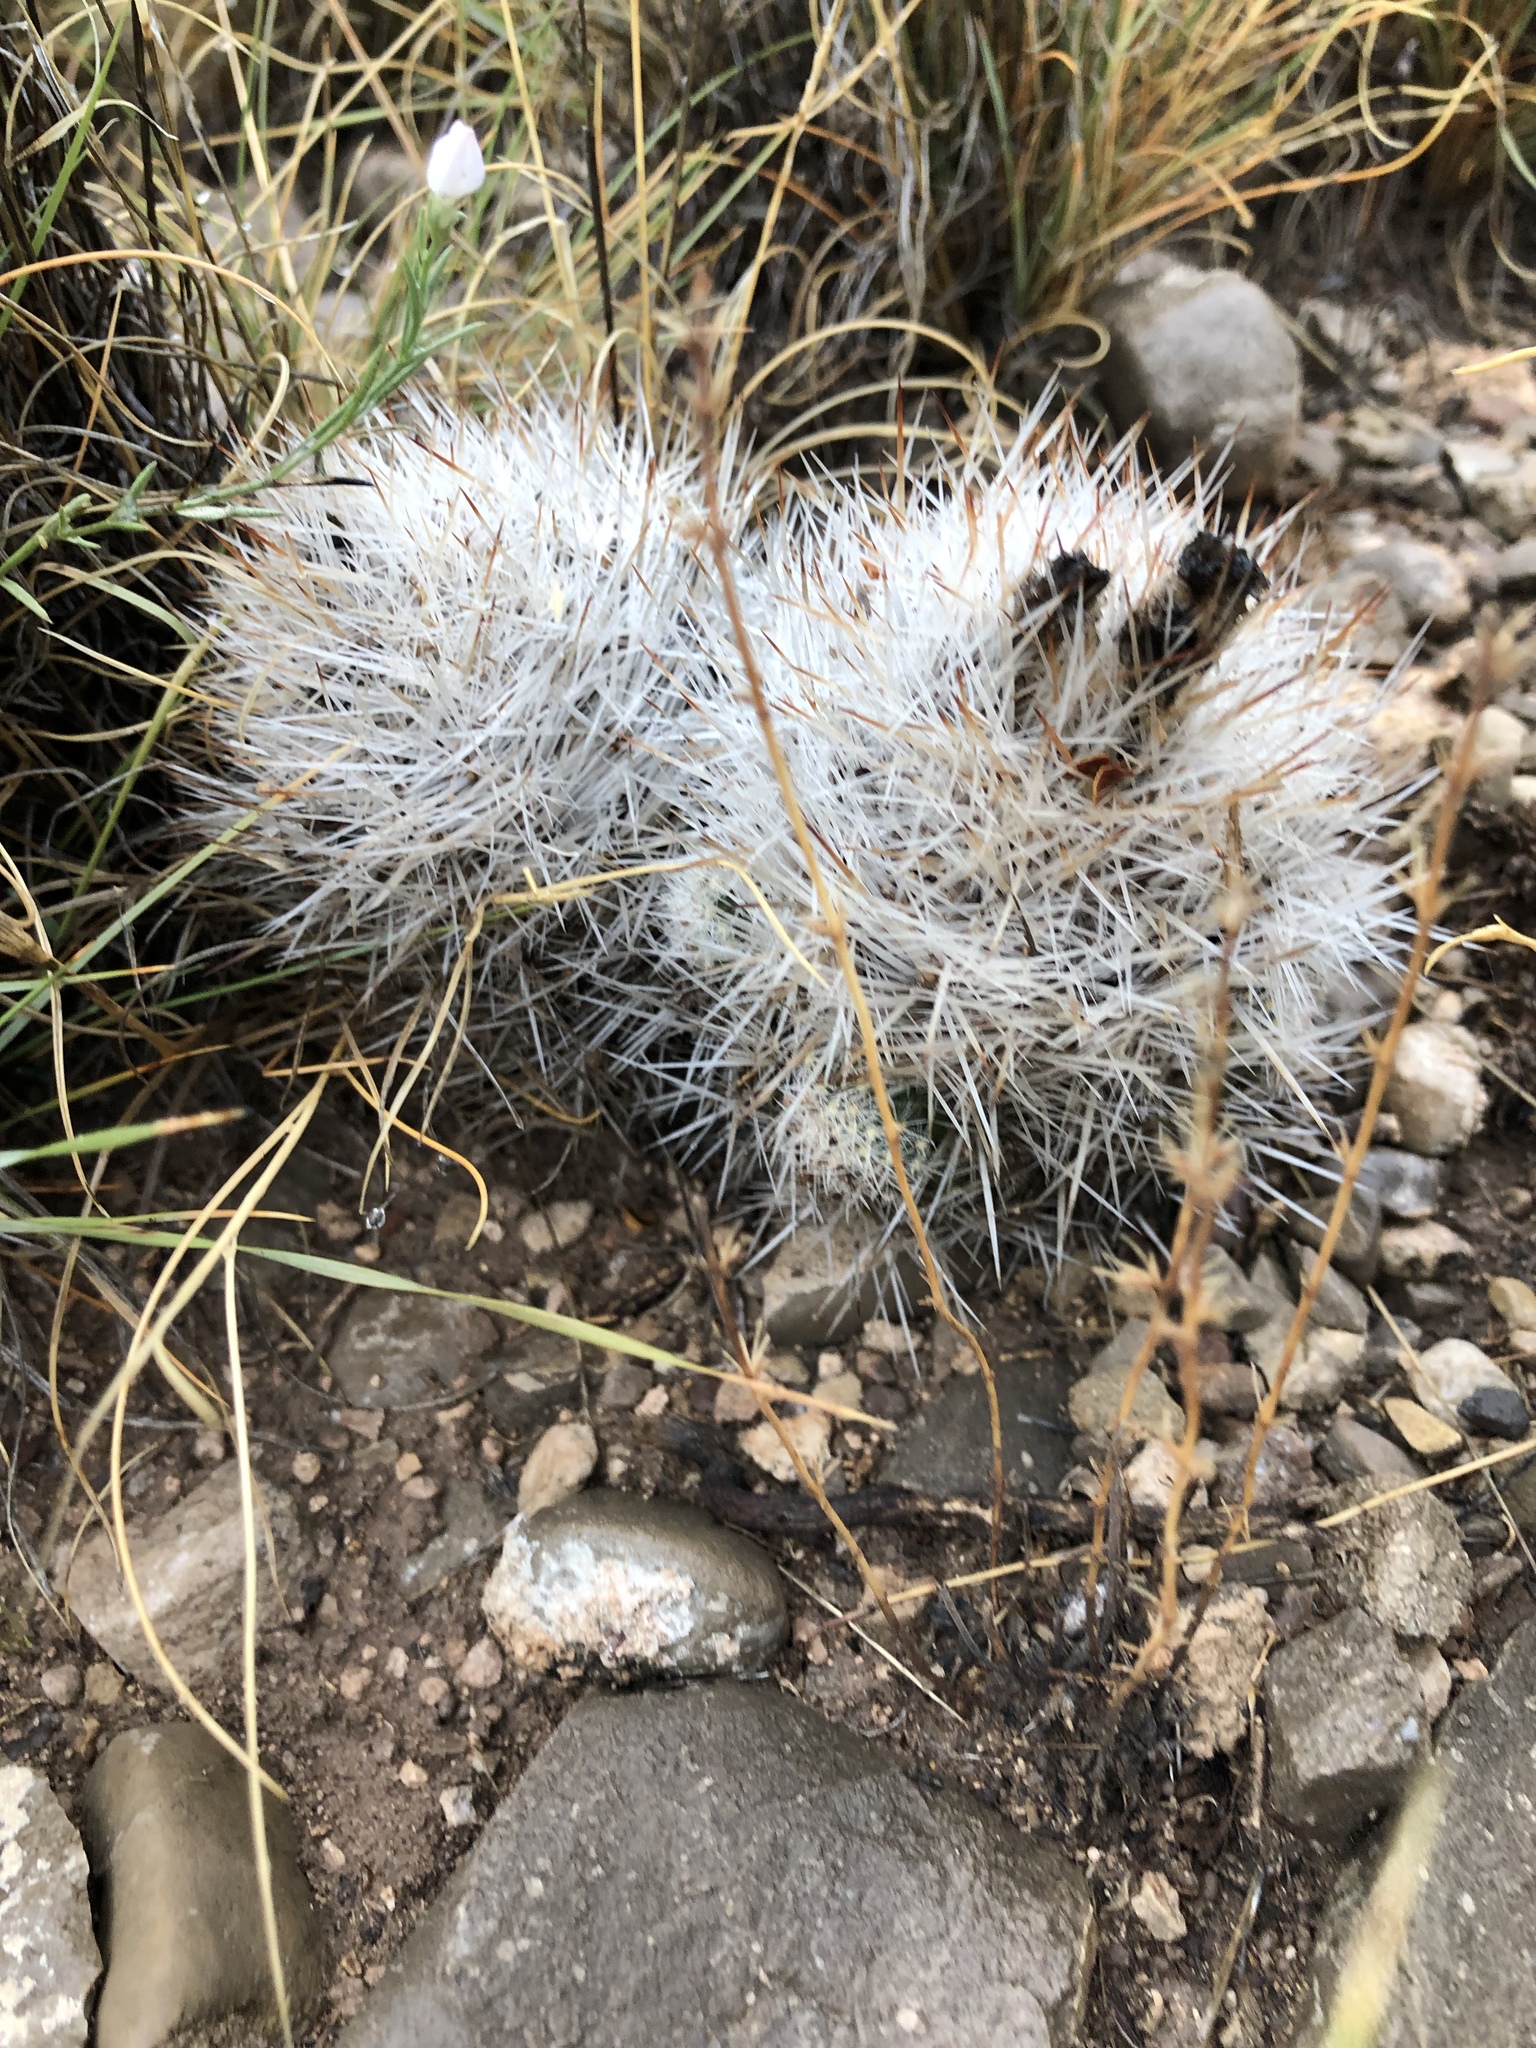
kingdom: Plantae
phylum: Tracheophyta
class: Magnoliopsida
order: Caryophyllales
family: Cactaceae
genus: Pelecyphora
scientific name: Pelecyphora sneedii
